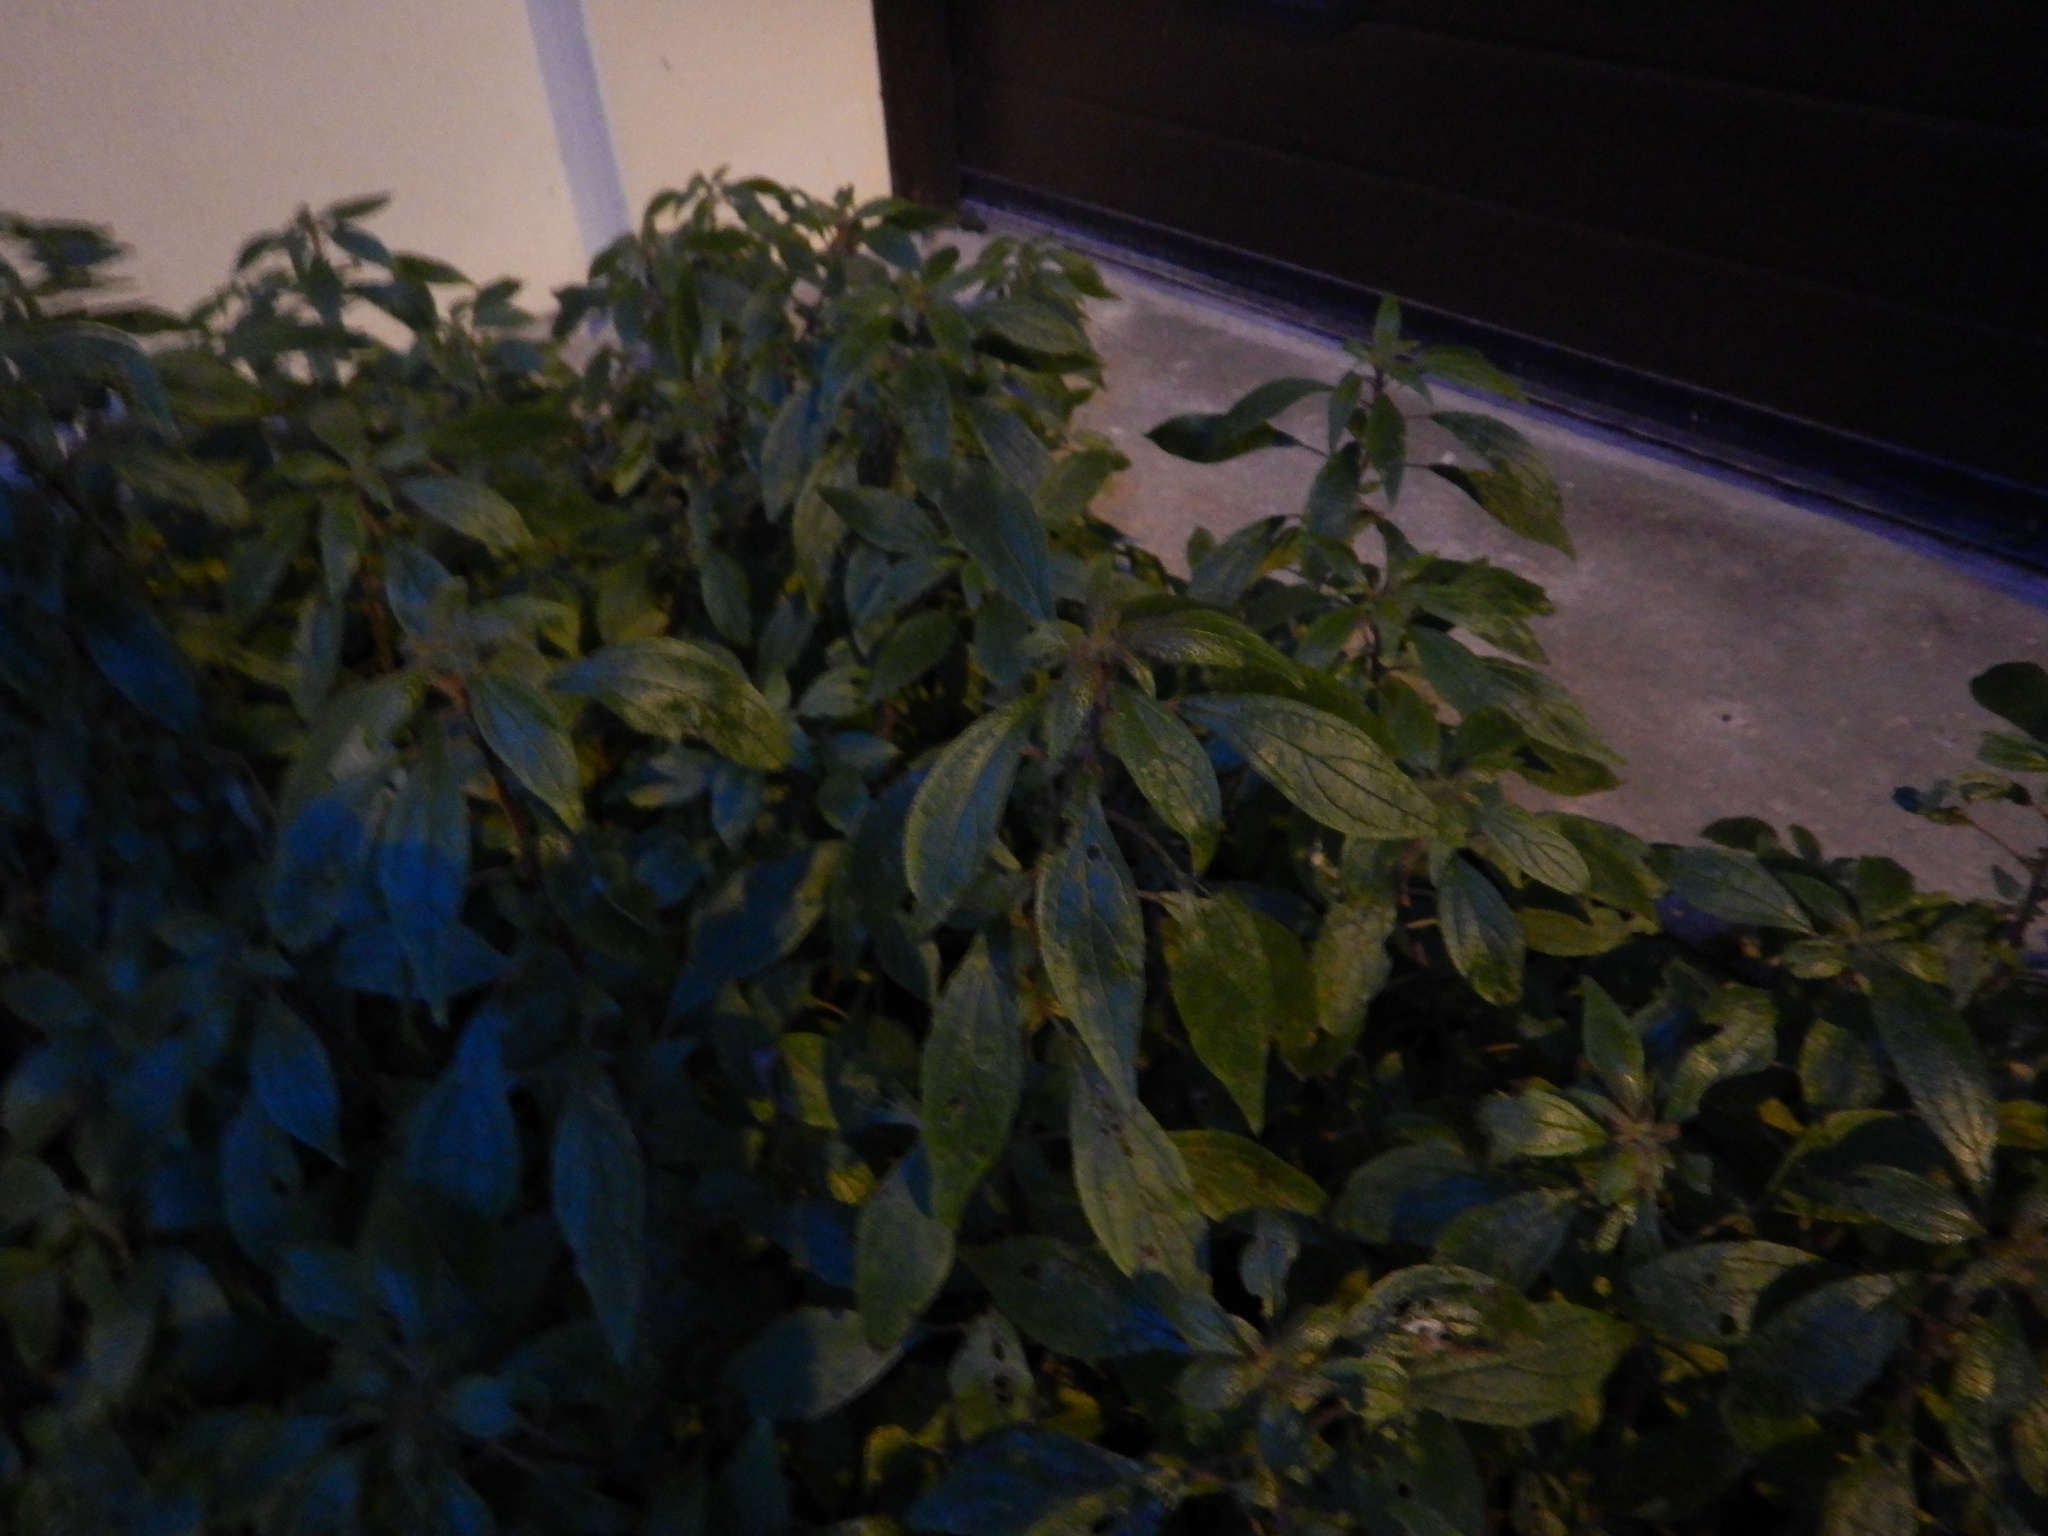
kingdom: Plantae
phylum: Tracheophyta
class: Magnoliopsida
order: Rosales
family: Urticaceae
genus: Parietaria
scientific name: Parietaria judaica
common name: Pellitory-of-the-wall
